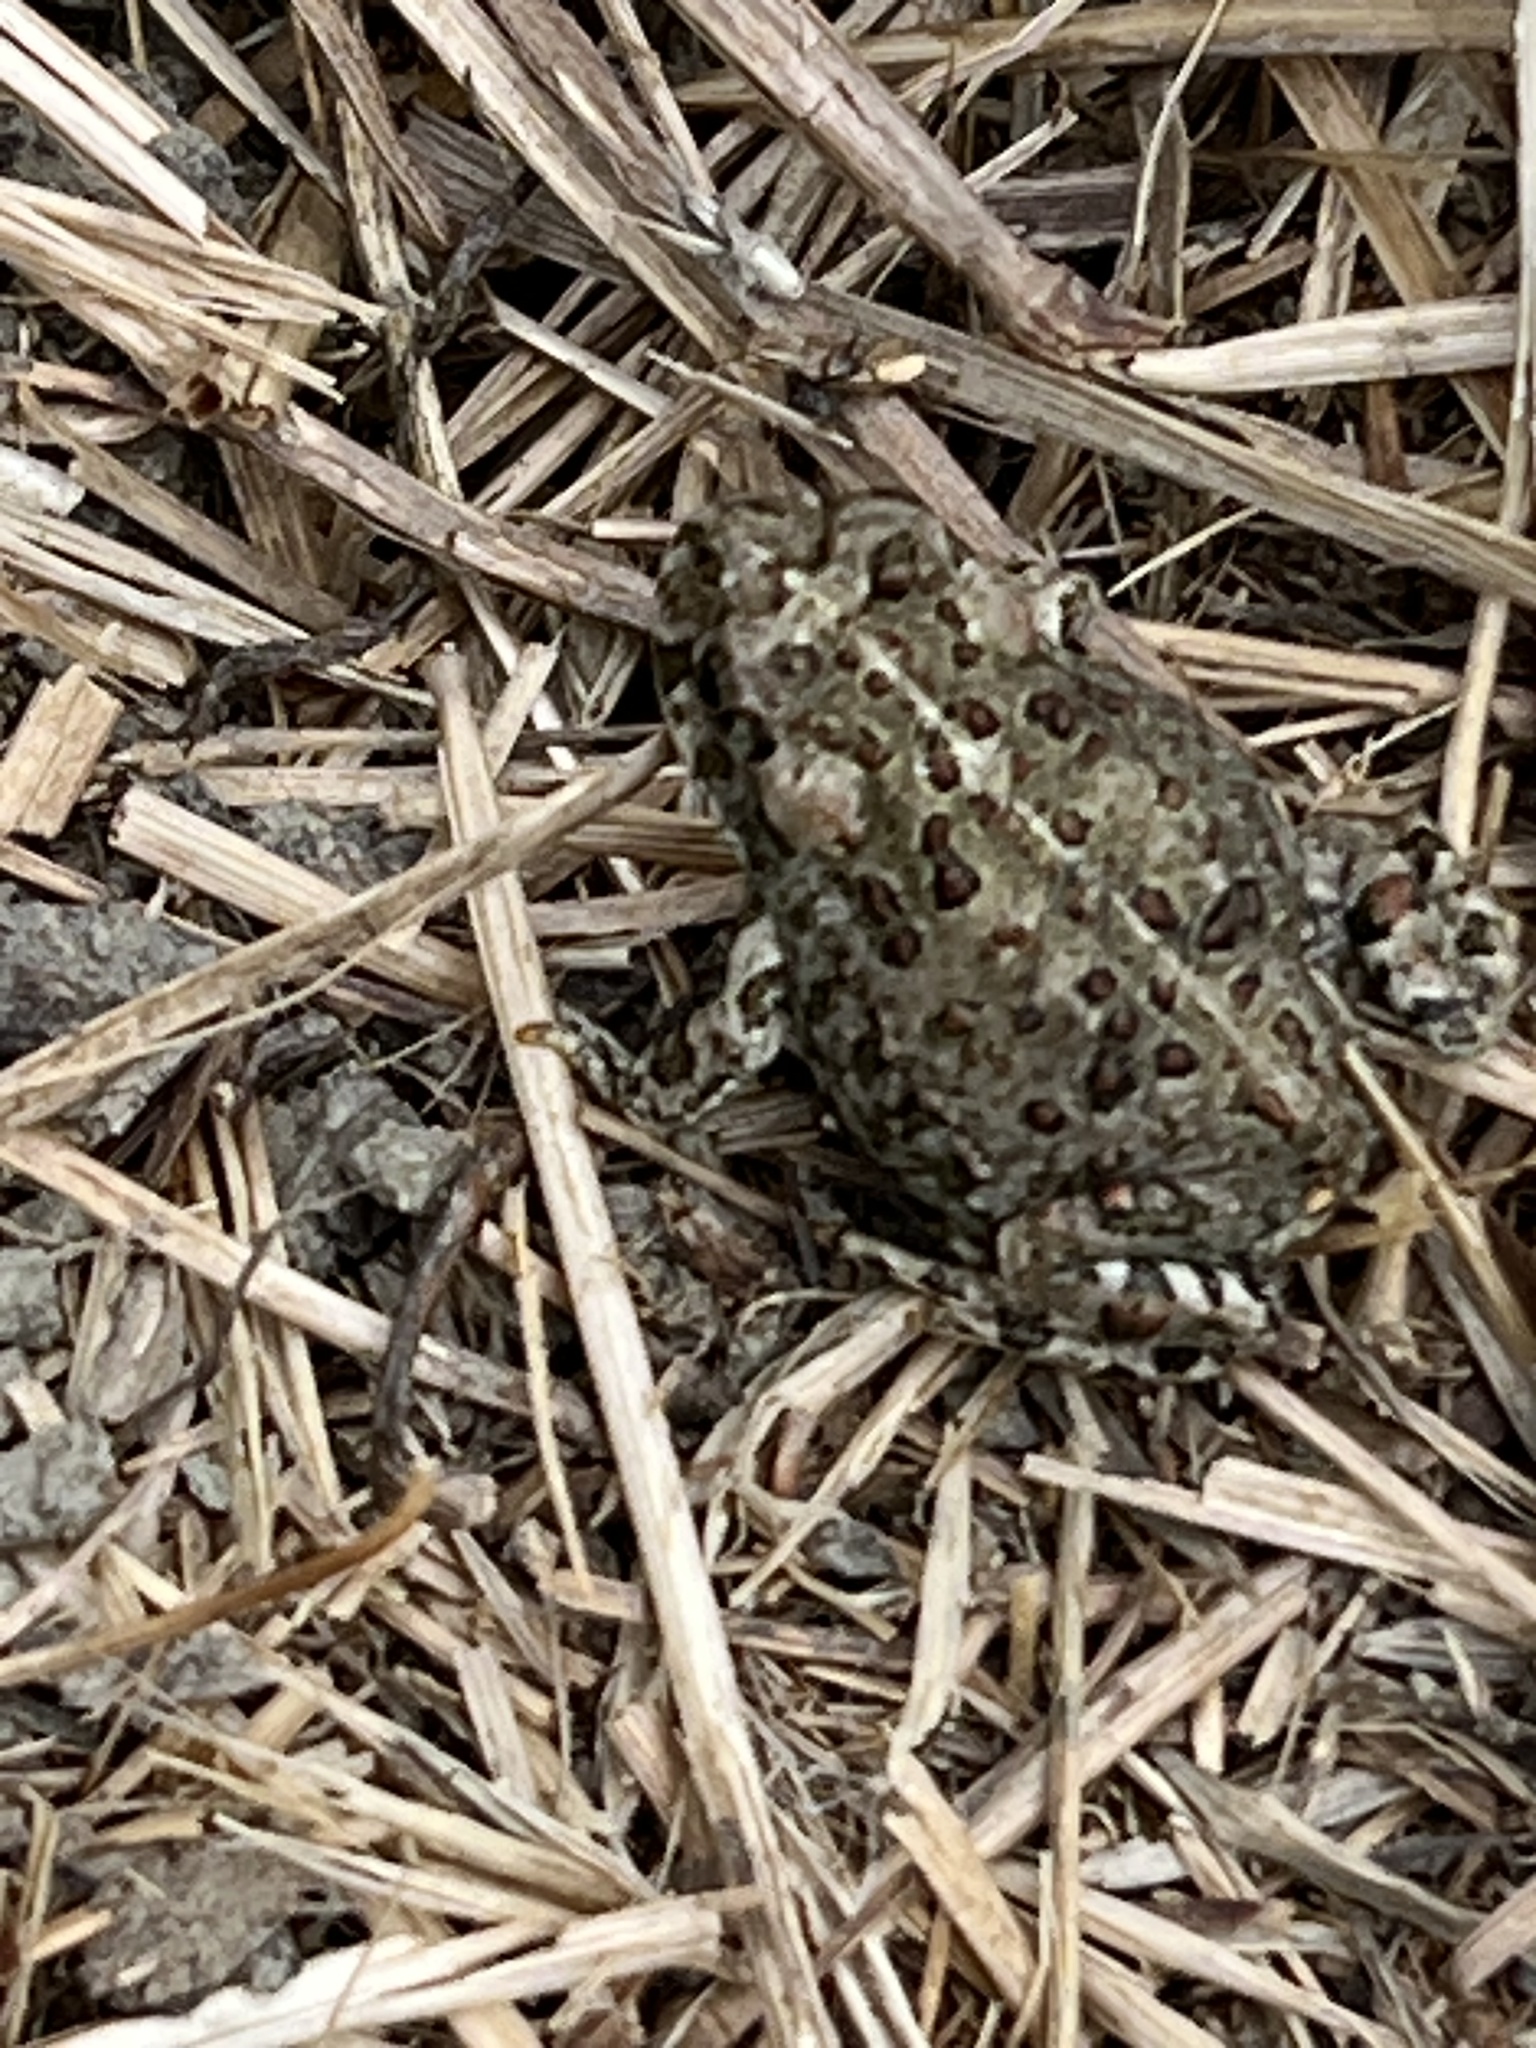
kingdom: Animalia
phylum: Chordata
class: Amphibia
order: Anura
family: Bufonidae
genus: Anaxyrus
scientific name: Anaxyrus boreas
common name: Western toad
